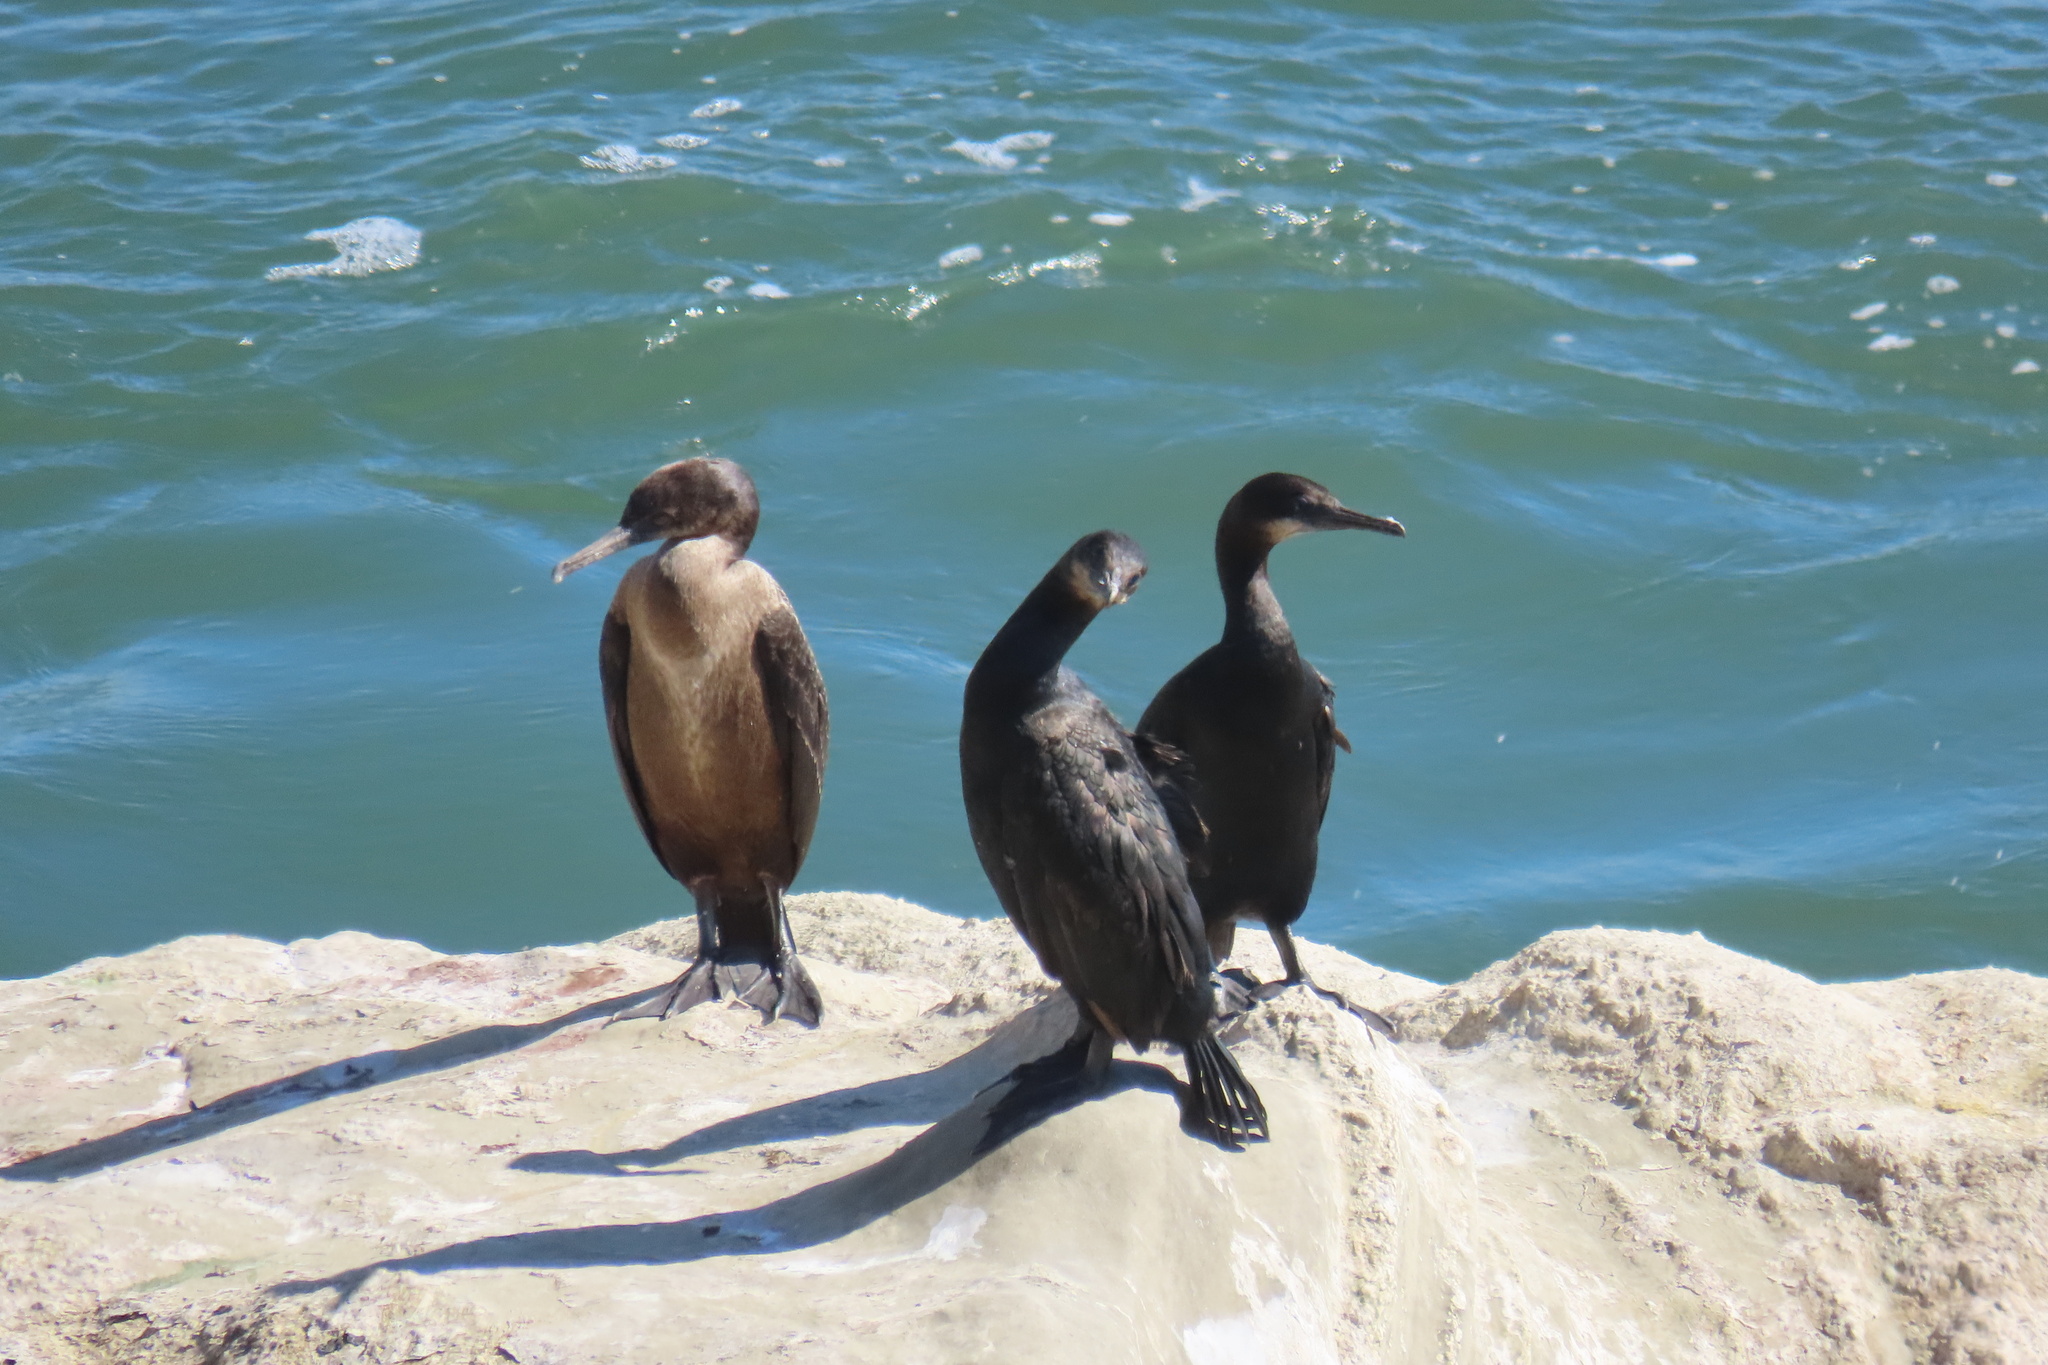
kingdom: Animalia
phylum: Chordata
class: Aves
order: Suliformes
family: Phalacrocoracidae
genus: Urile
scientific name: Urile penicillatus
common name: Brandt's cormorant
